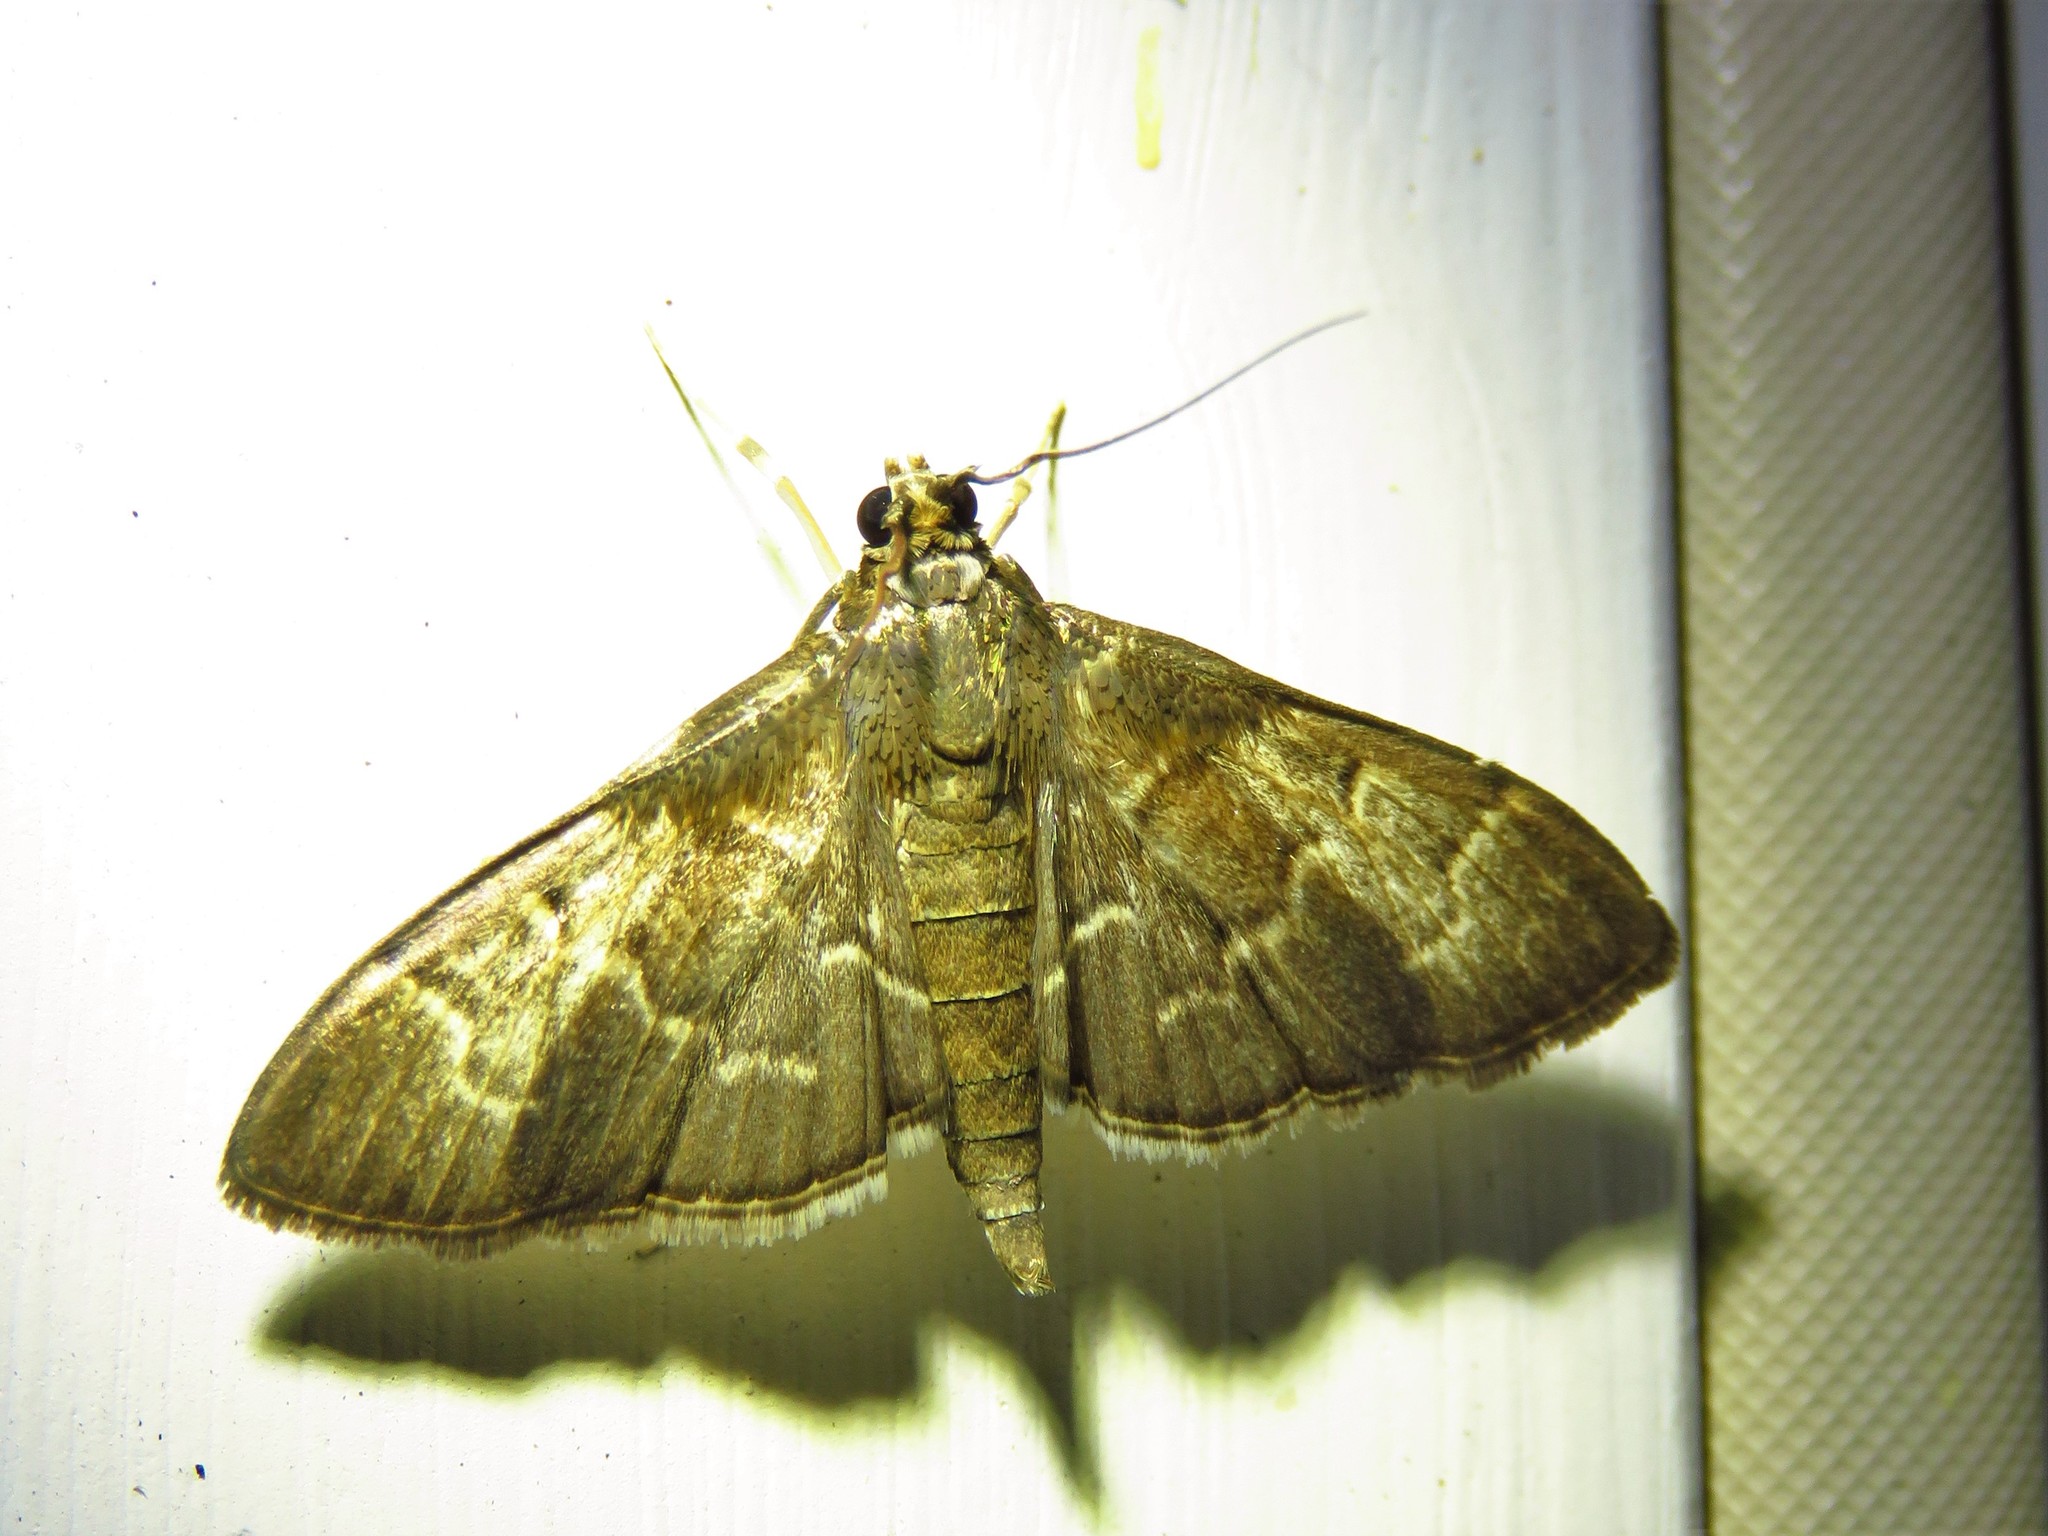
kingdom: Animalia
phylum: Arthropoda
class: Insecta
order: Lepidoptera
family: Crambidae
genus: Pilocrocis
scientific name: Pilocrocis ramentalis
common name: Scraped pilocrocis
